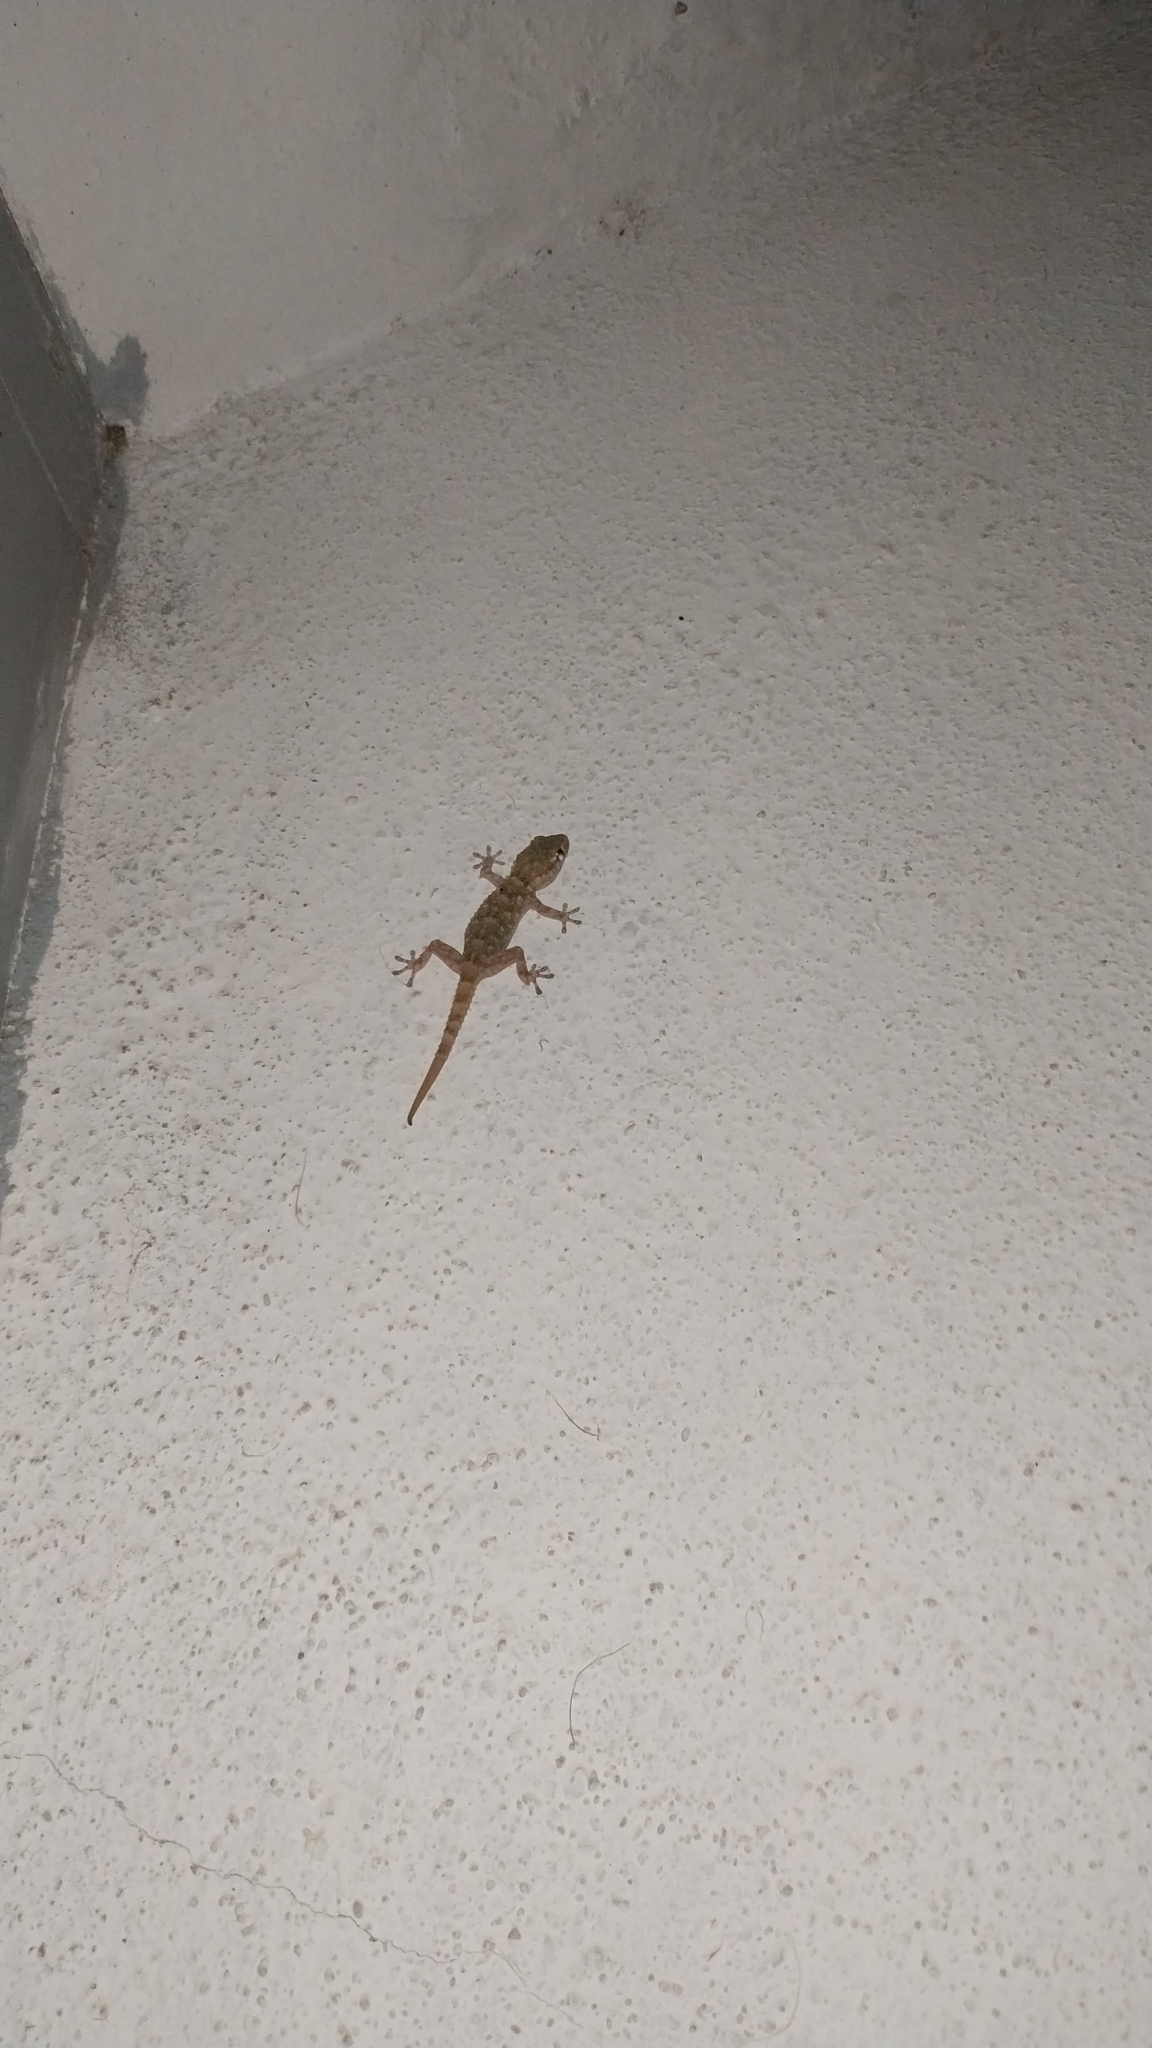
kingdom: Animalia
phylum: Chordata
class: Squamata
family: Phyllodactylidae
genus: Tarentola
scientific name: Tarentola mauritanica
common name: Moorish gecko
